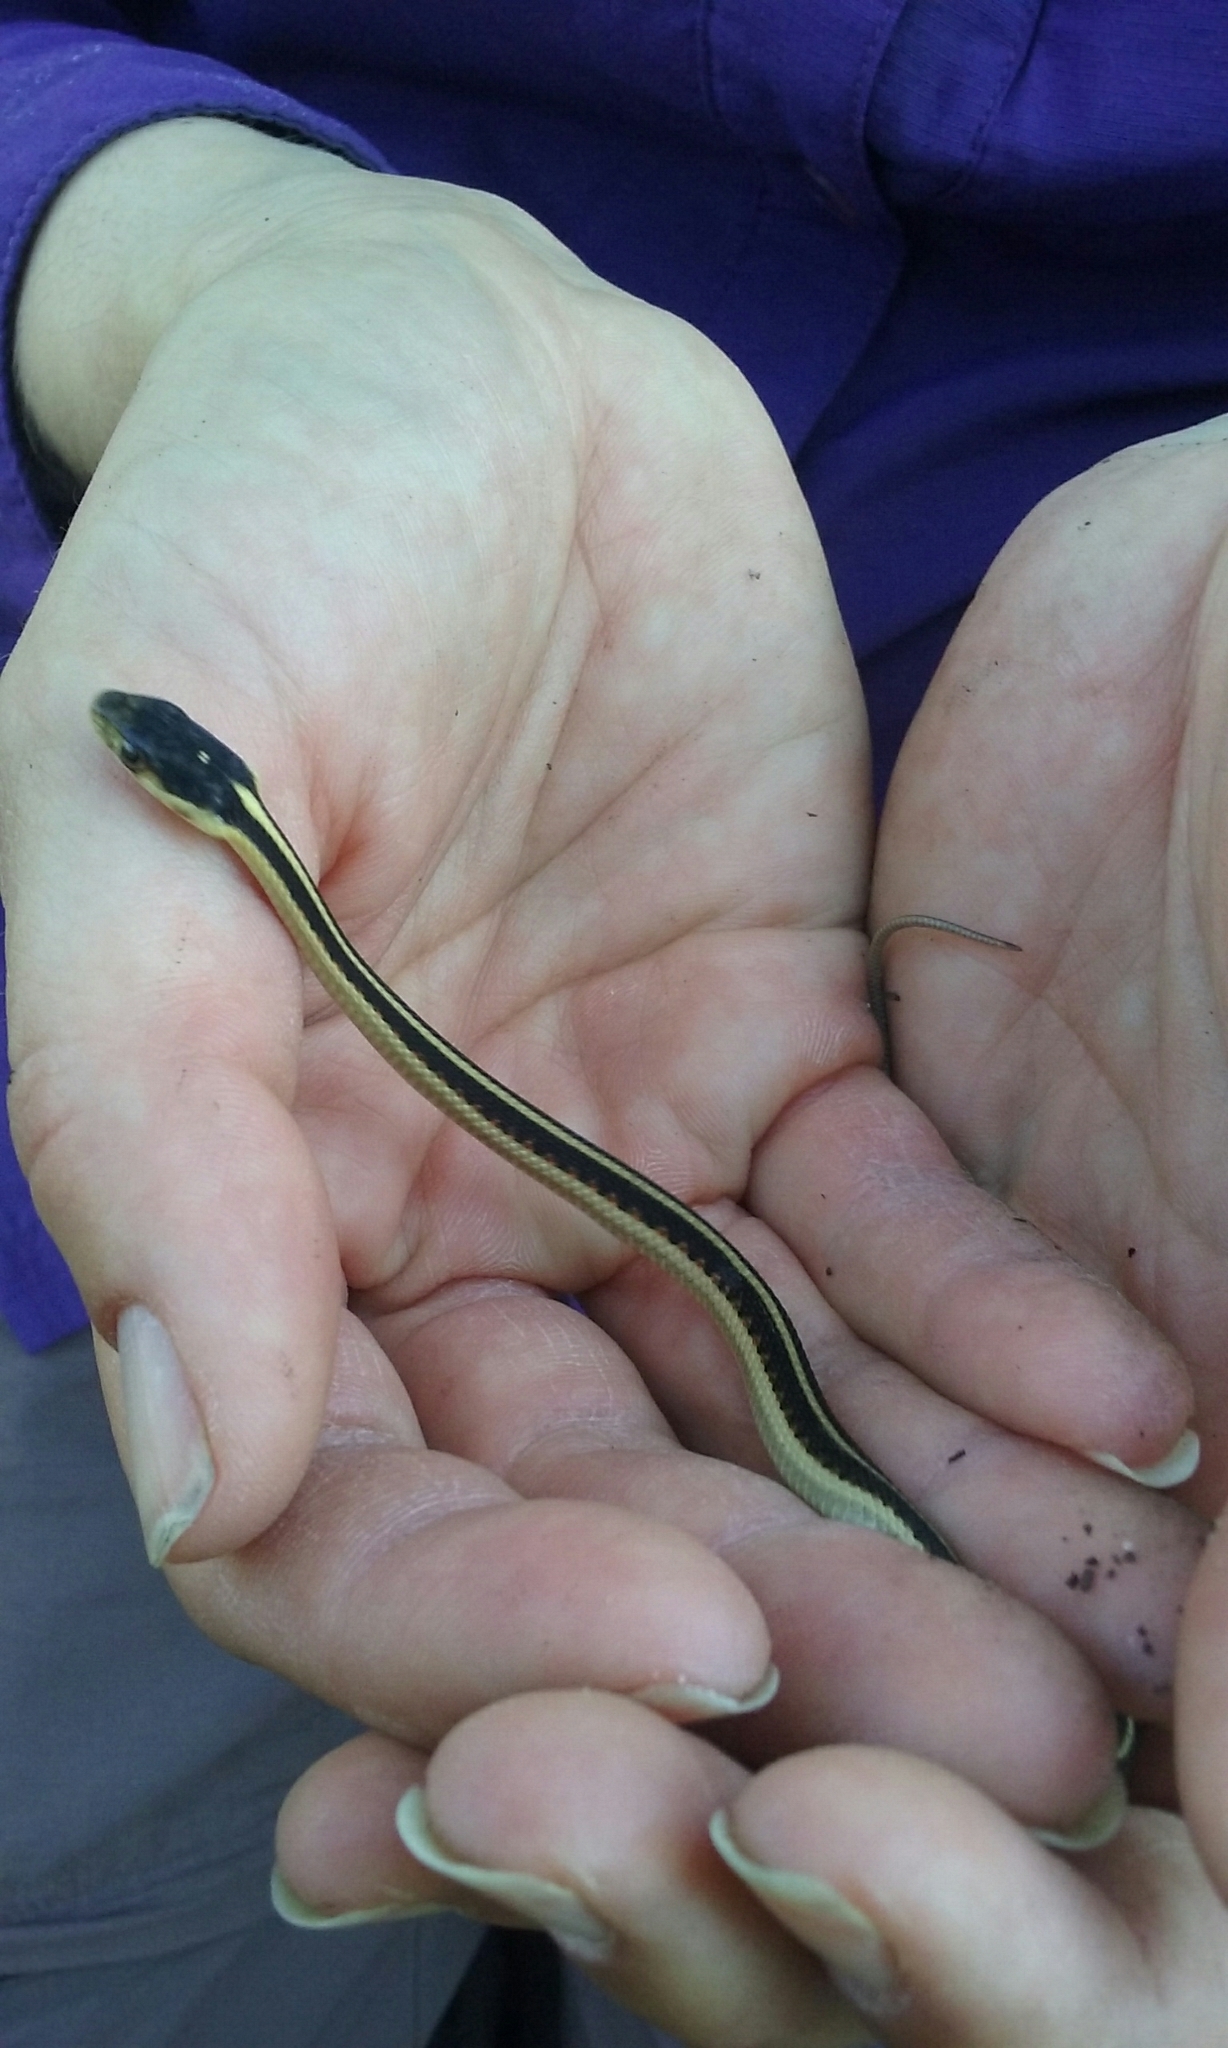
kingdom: Animalia
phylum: Chordata
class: Squamata
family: Colubridae
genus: Thamnophis
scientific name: Thamnophis sirtalis
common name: Common garter snake
